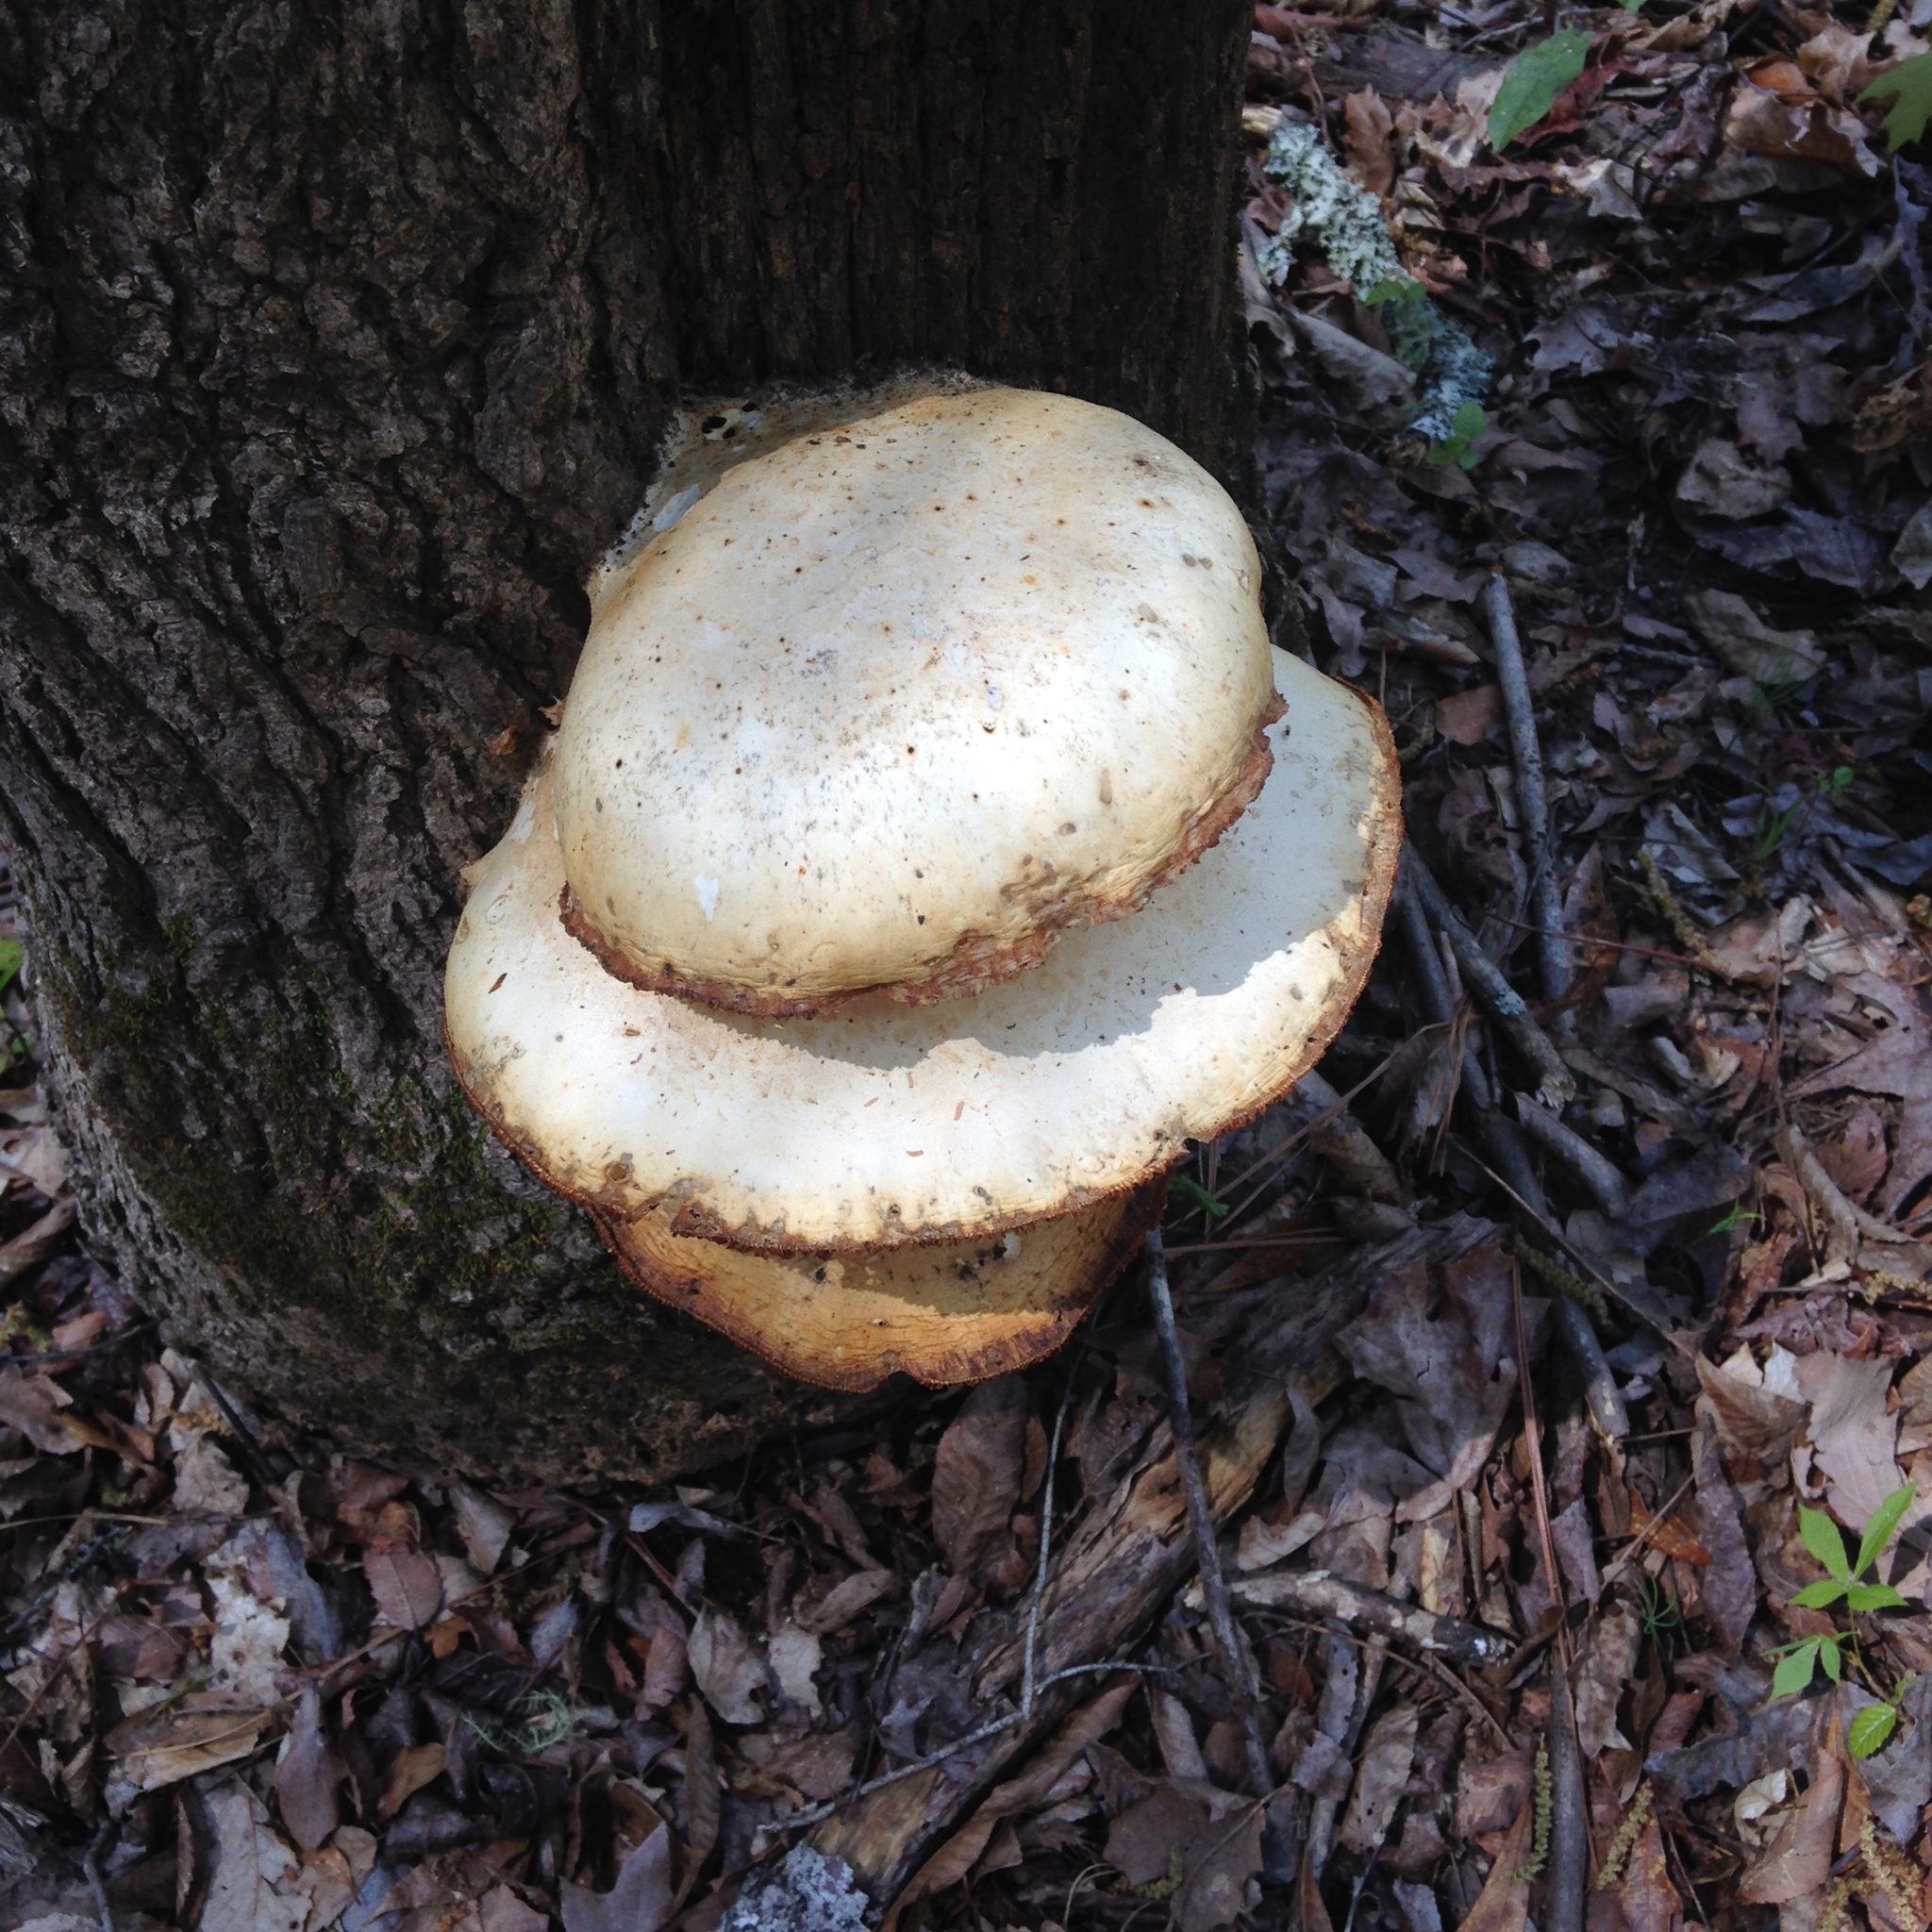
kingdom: Fungi
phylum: Basidiomycota
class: Agaricomycetes
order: Agaricales
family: Lyophyllaceae
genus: Hypsizygus
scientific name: Hypsizygus ulmarius
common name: Elm leech
